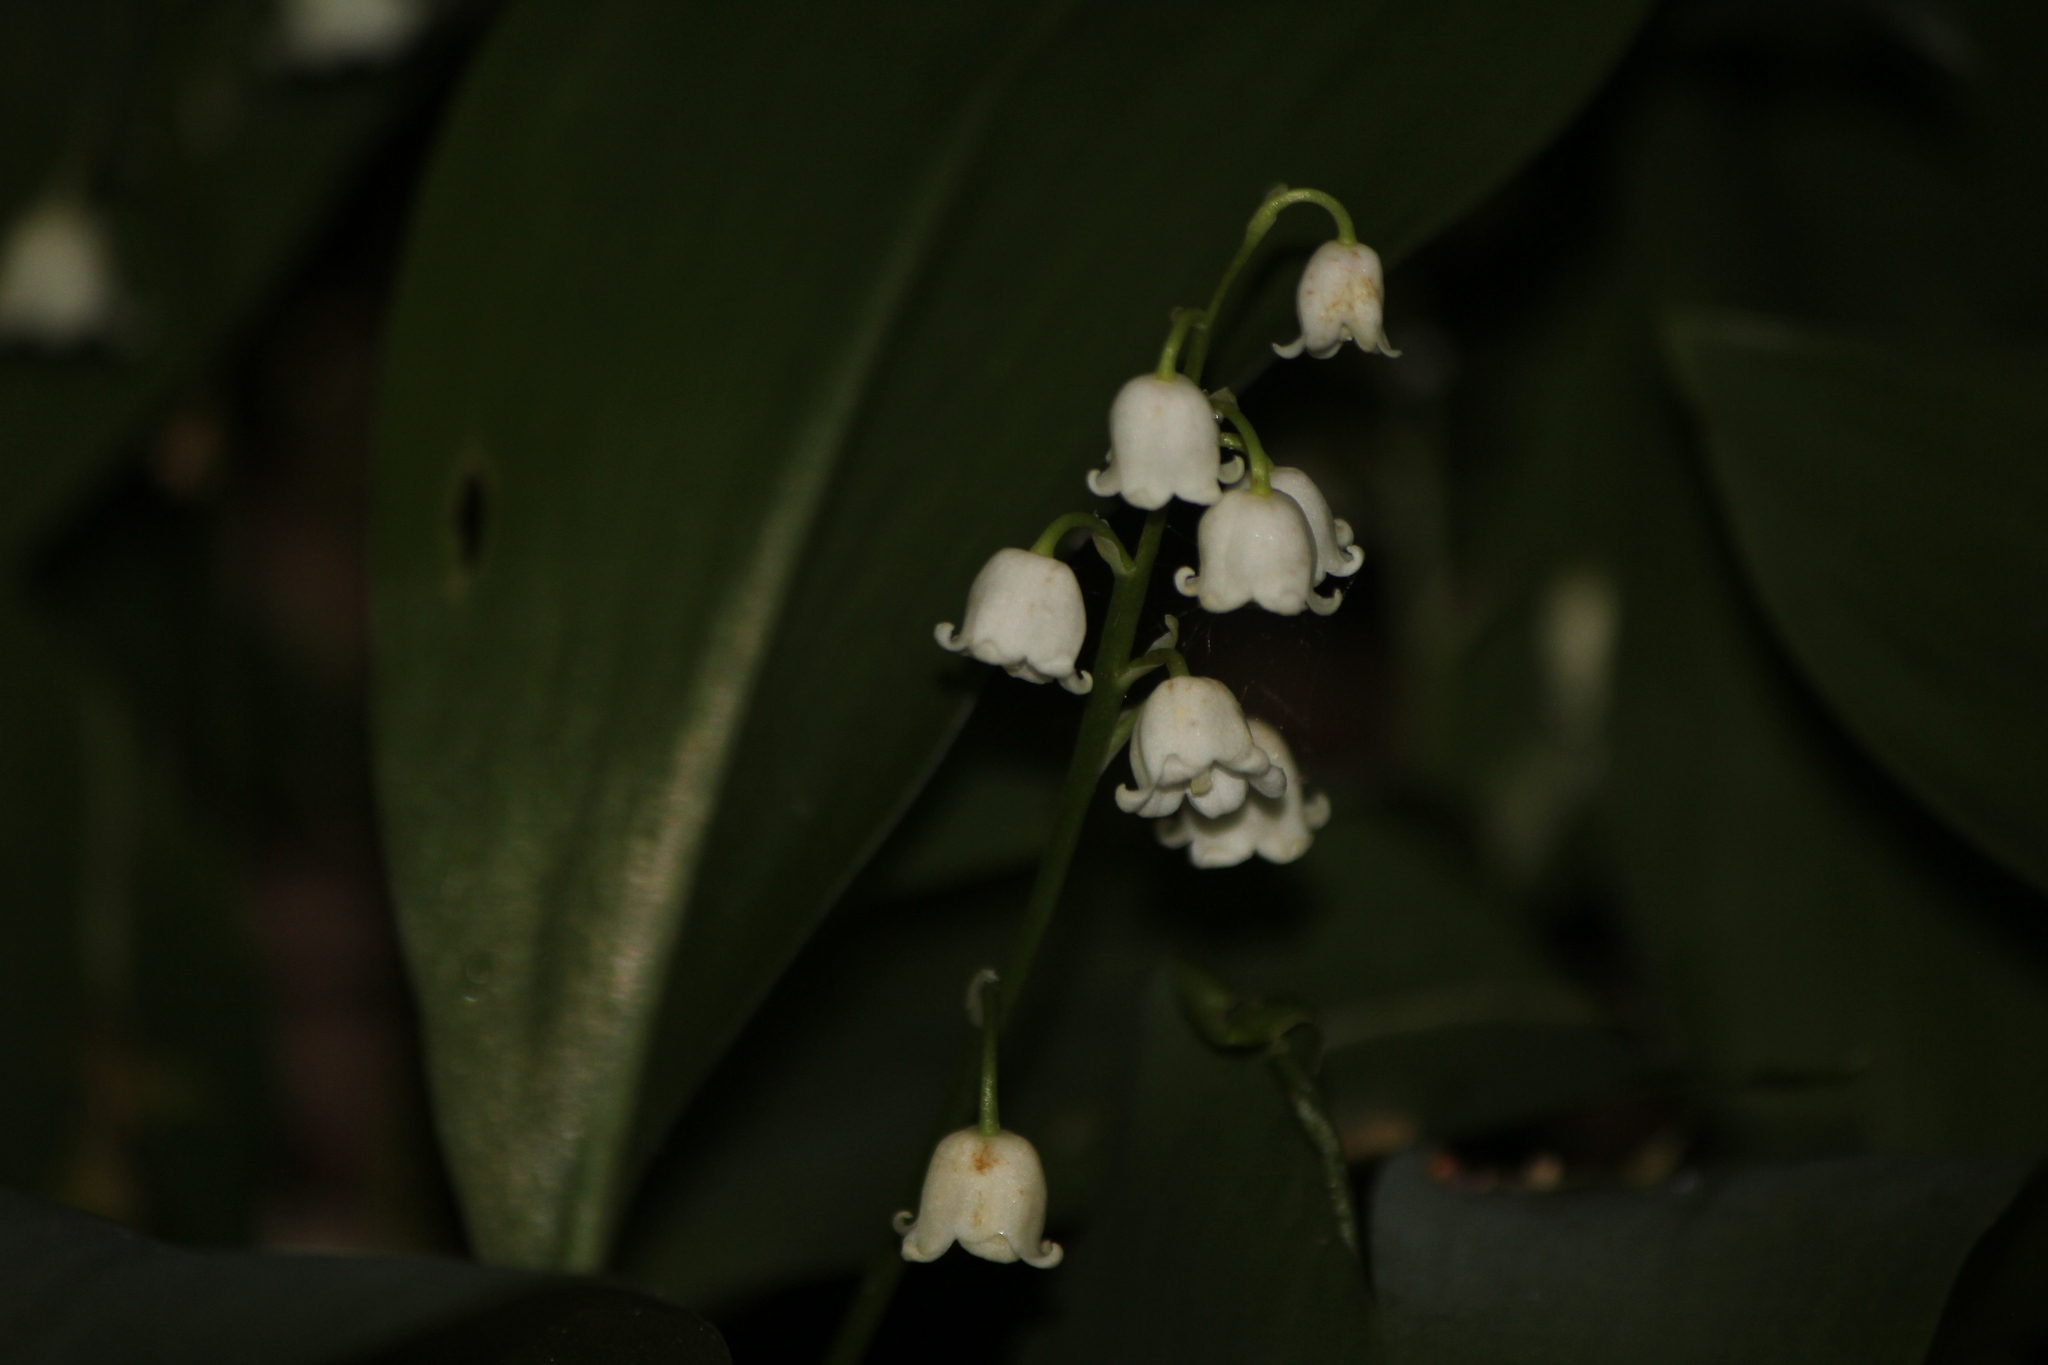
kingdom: Plantae
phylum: Tracheophyta
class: Liliopsida
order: Asparagales
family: Asparagaceae
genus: Convallaria
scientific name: Convallaria majalis
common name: Lily-of-the-valley
